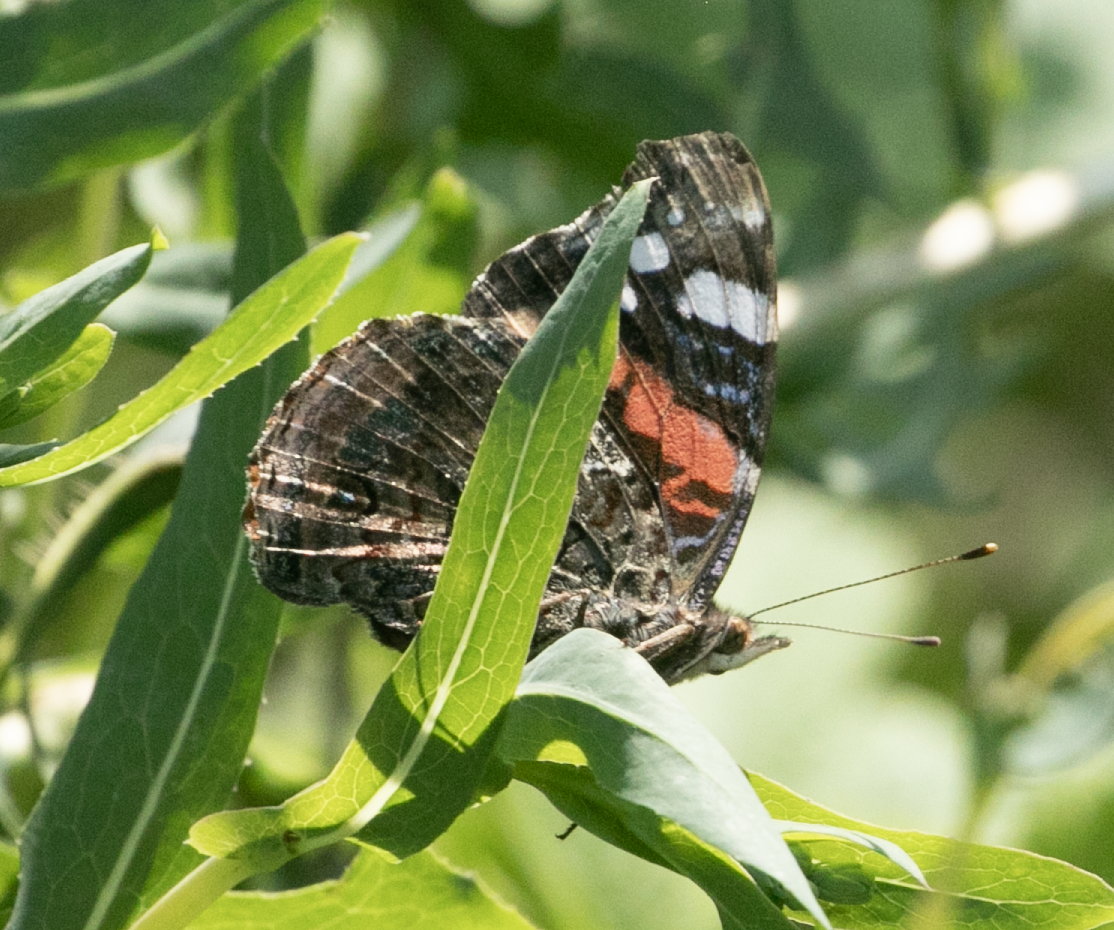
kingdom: Animalia
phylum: Arthropoda
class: Insecta
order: Lepidoptera
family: Nymphalidae
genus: Vanessa
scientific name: Vanessa atalanta
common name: Red admiral
